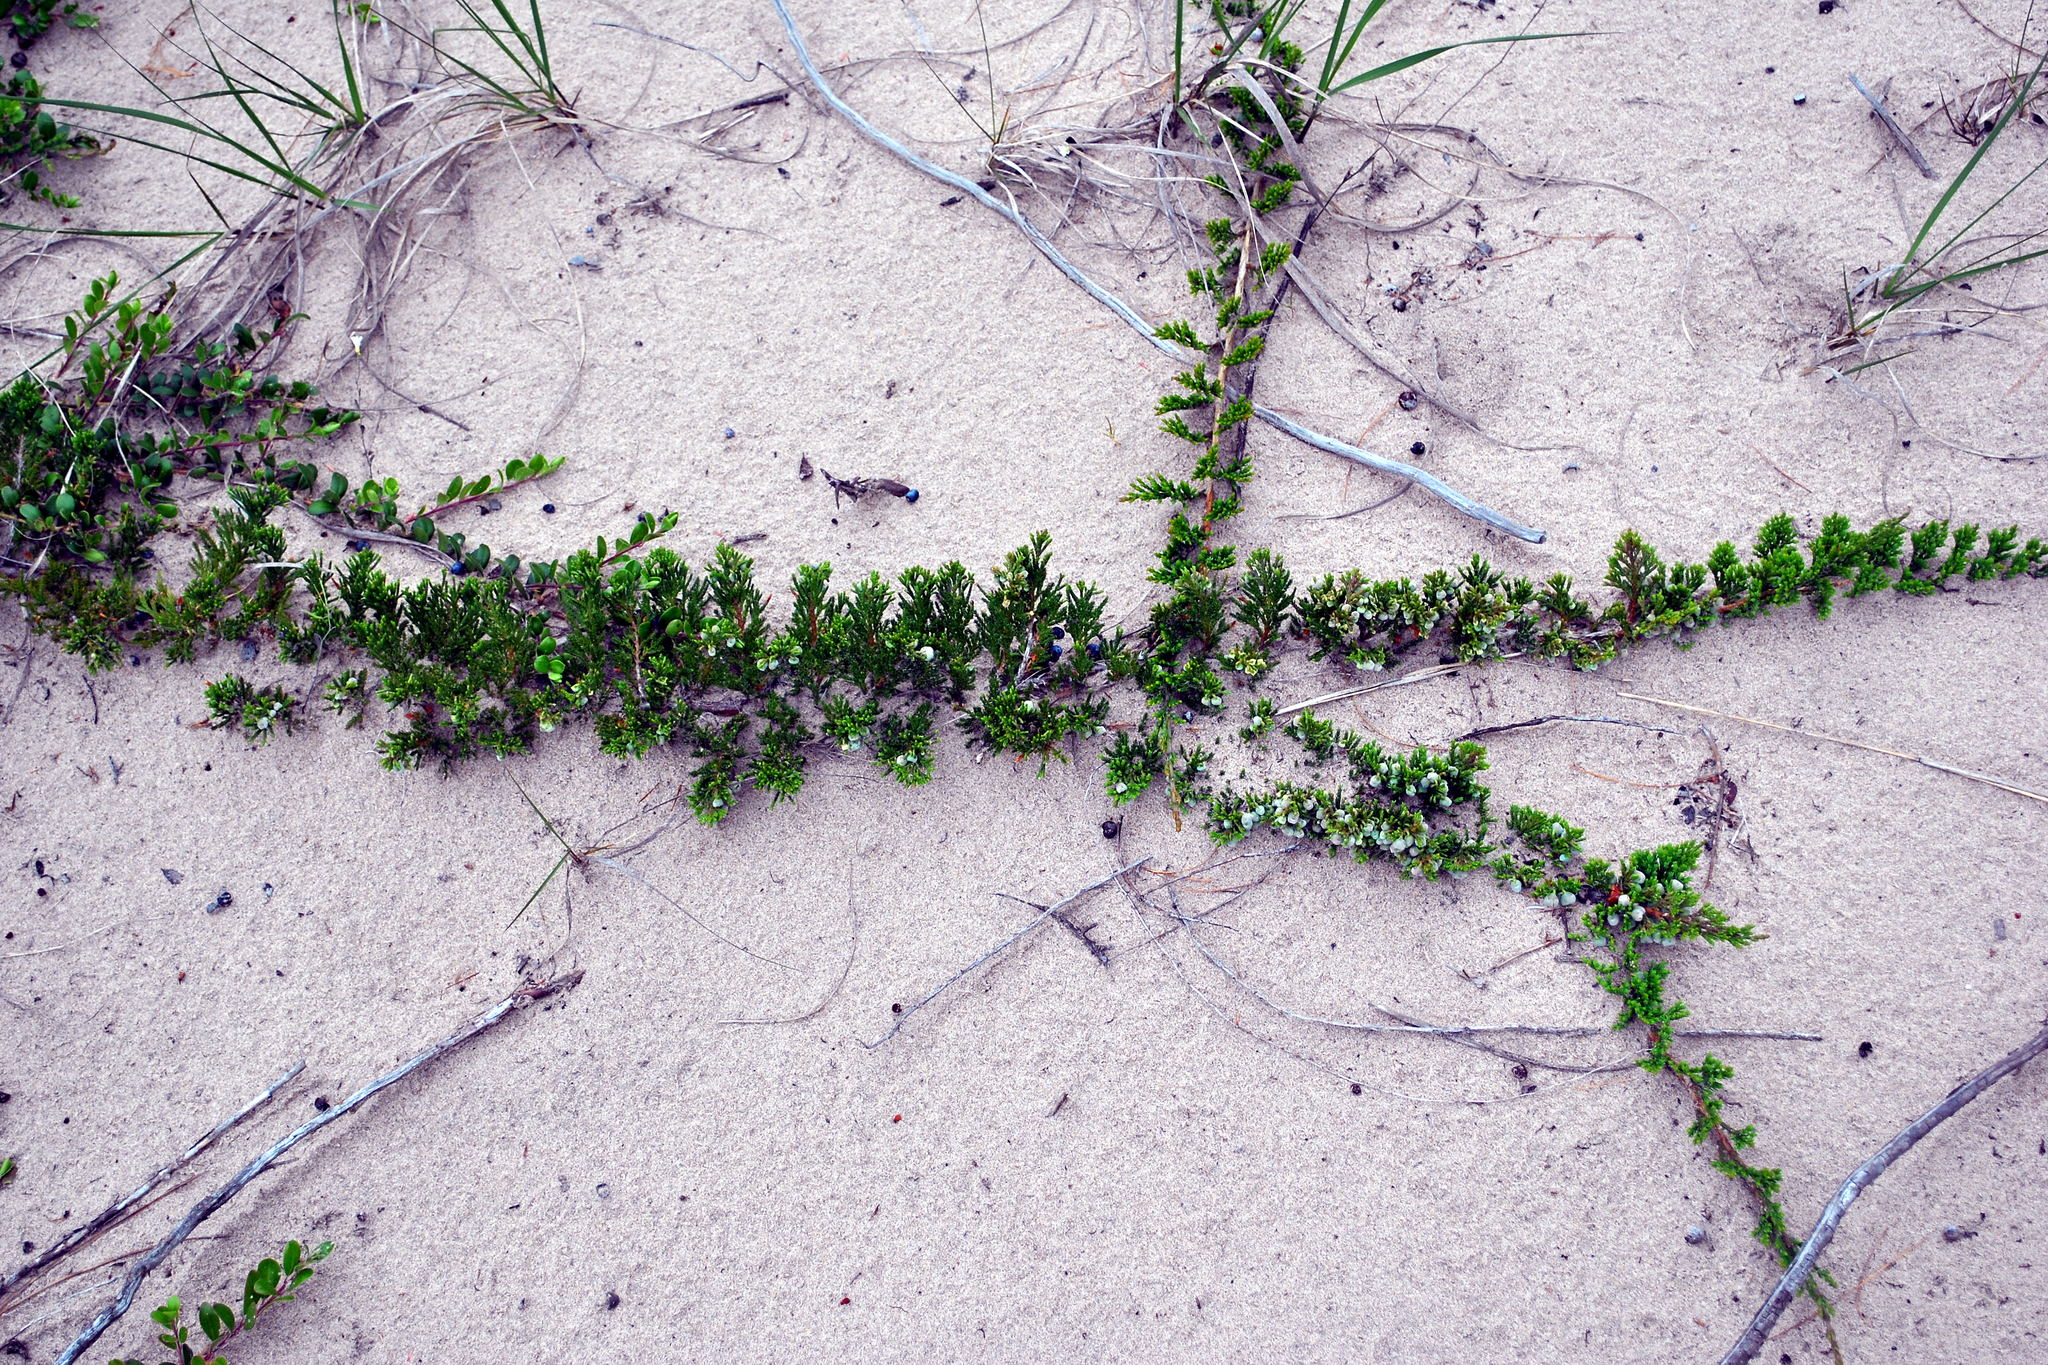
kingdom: Plantae
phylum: Tracheophyta
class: Pinopsida
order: Pinales
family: Cupressaceae
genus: Juniperus
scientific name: Juniperus horizontalis
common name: Creeping juniper
